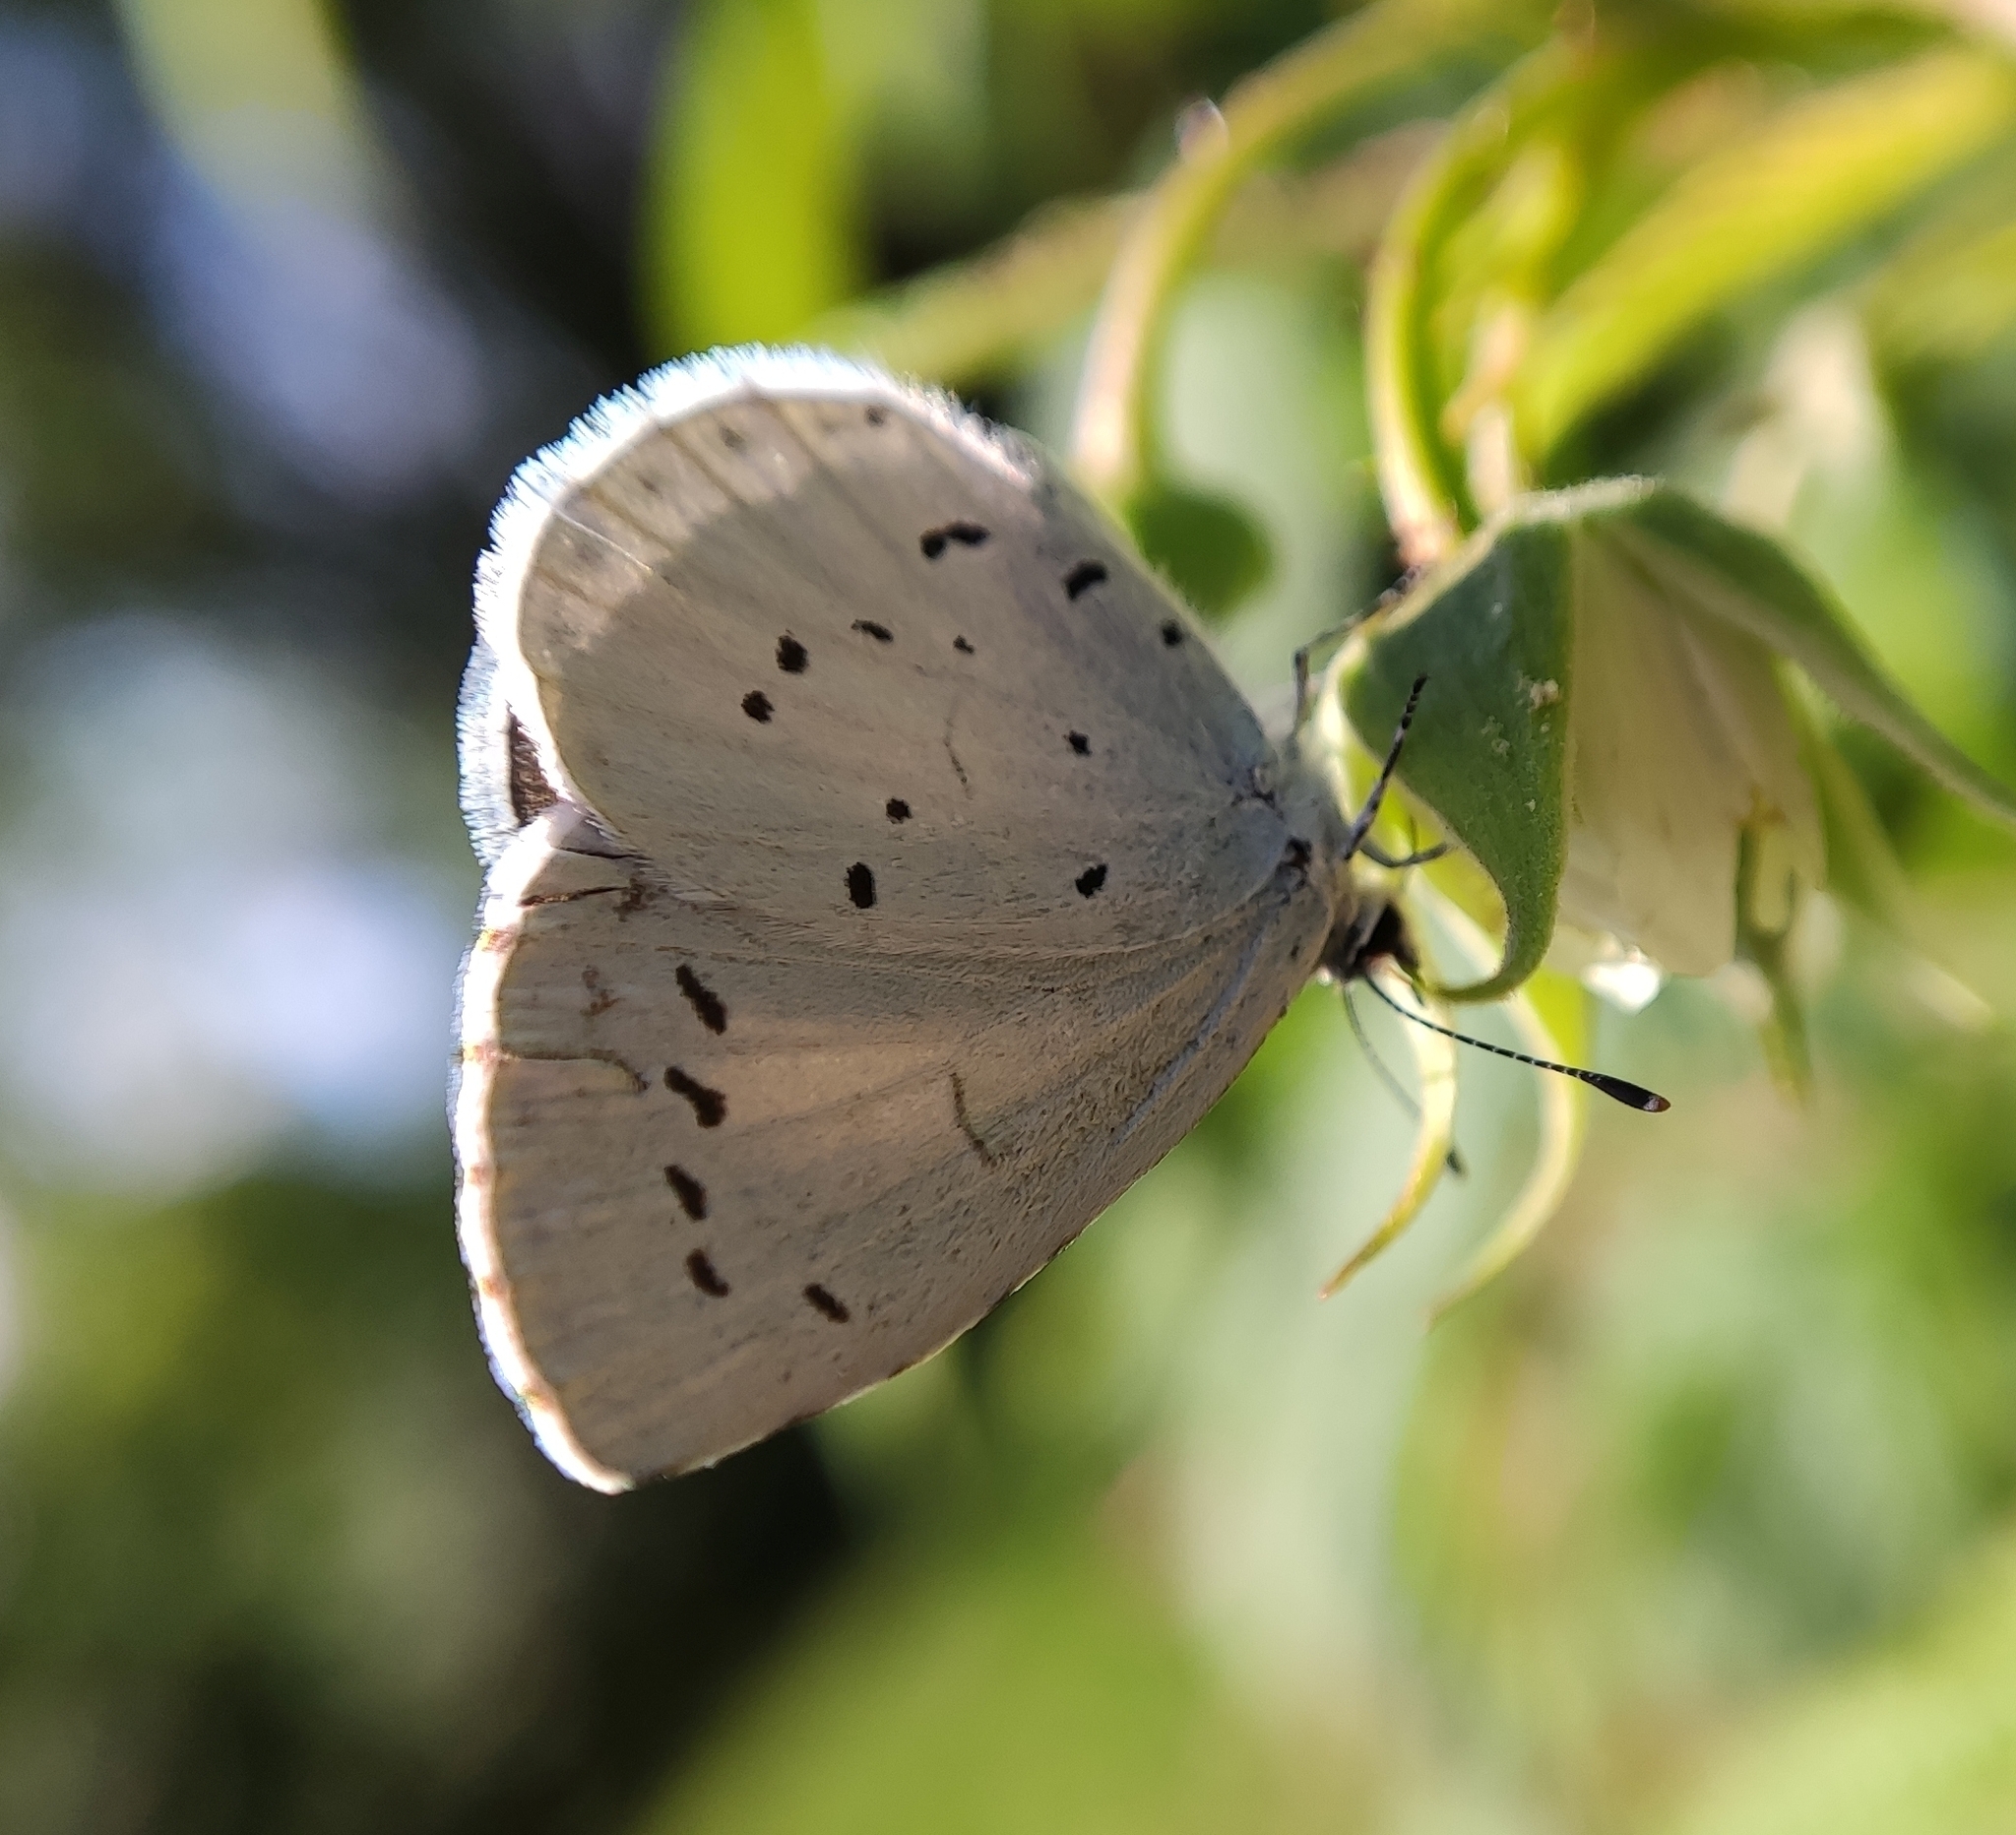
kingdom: Animalia
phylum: Arthropoda
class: Insecta
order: Lepidoptera
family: Lycaenidae
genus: Celastrina
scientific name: Celastrina argiolus
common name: Holly blue
